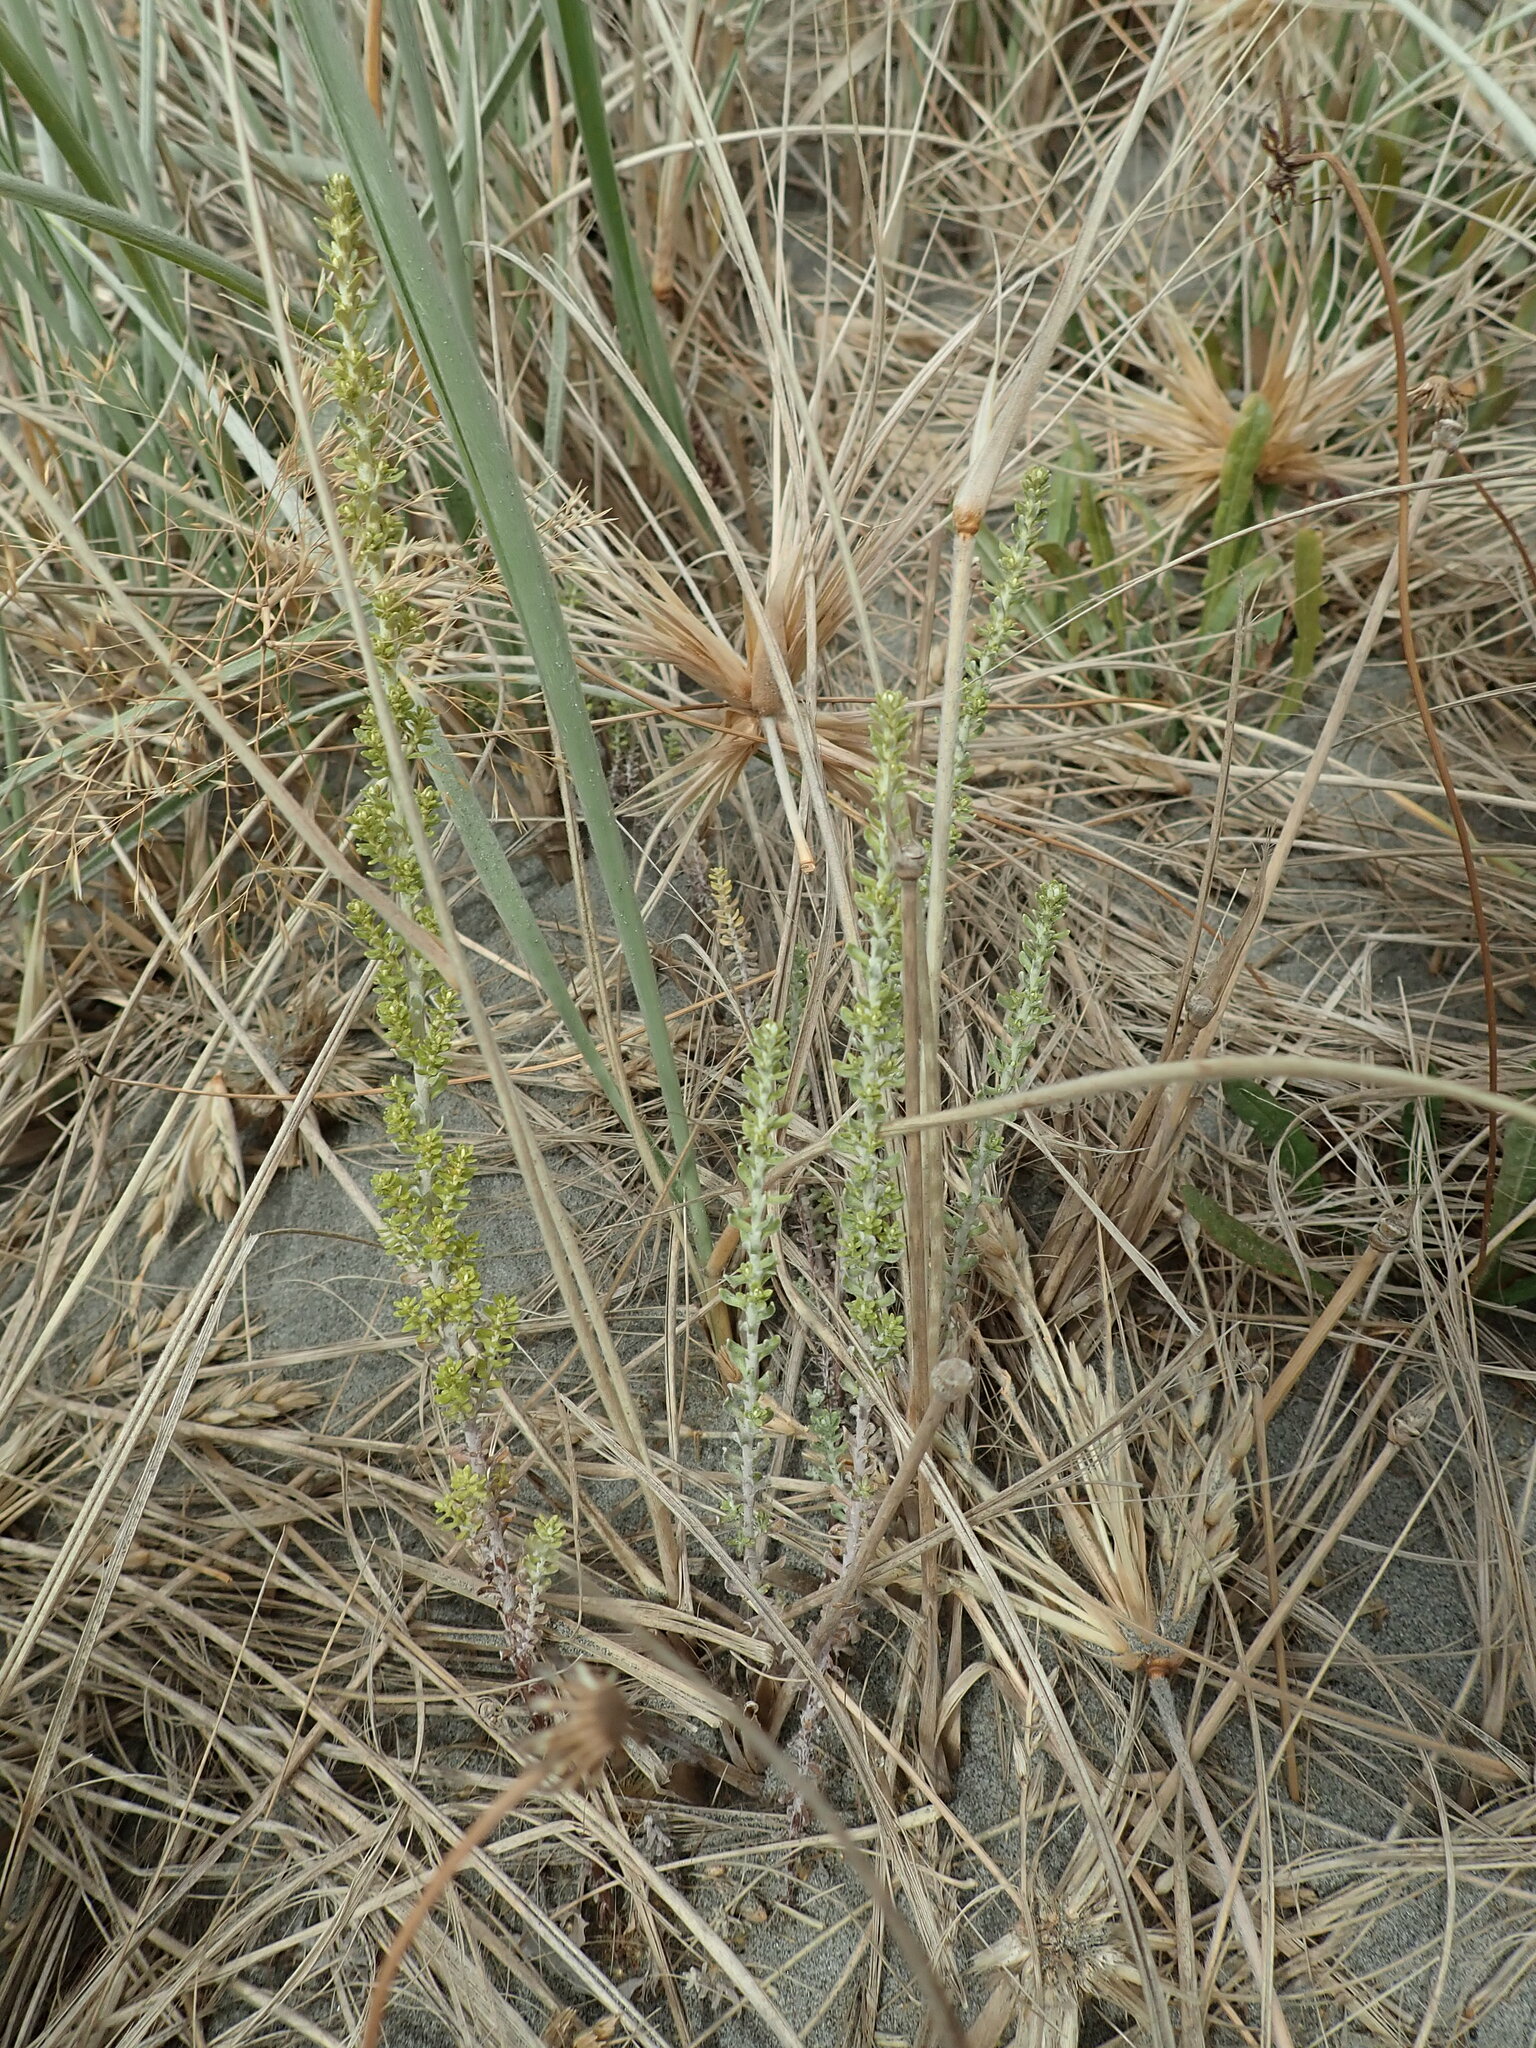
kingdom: Plantae
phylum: Tracheophyta
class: Magnoliopsida
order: Asterales
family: Asteraceae
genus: Ozothamnus
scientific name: Ozothamnus leptophyllus
